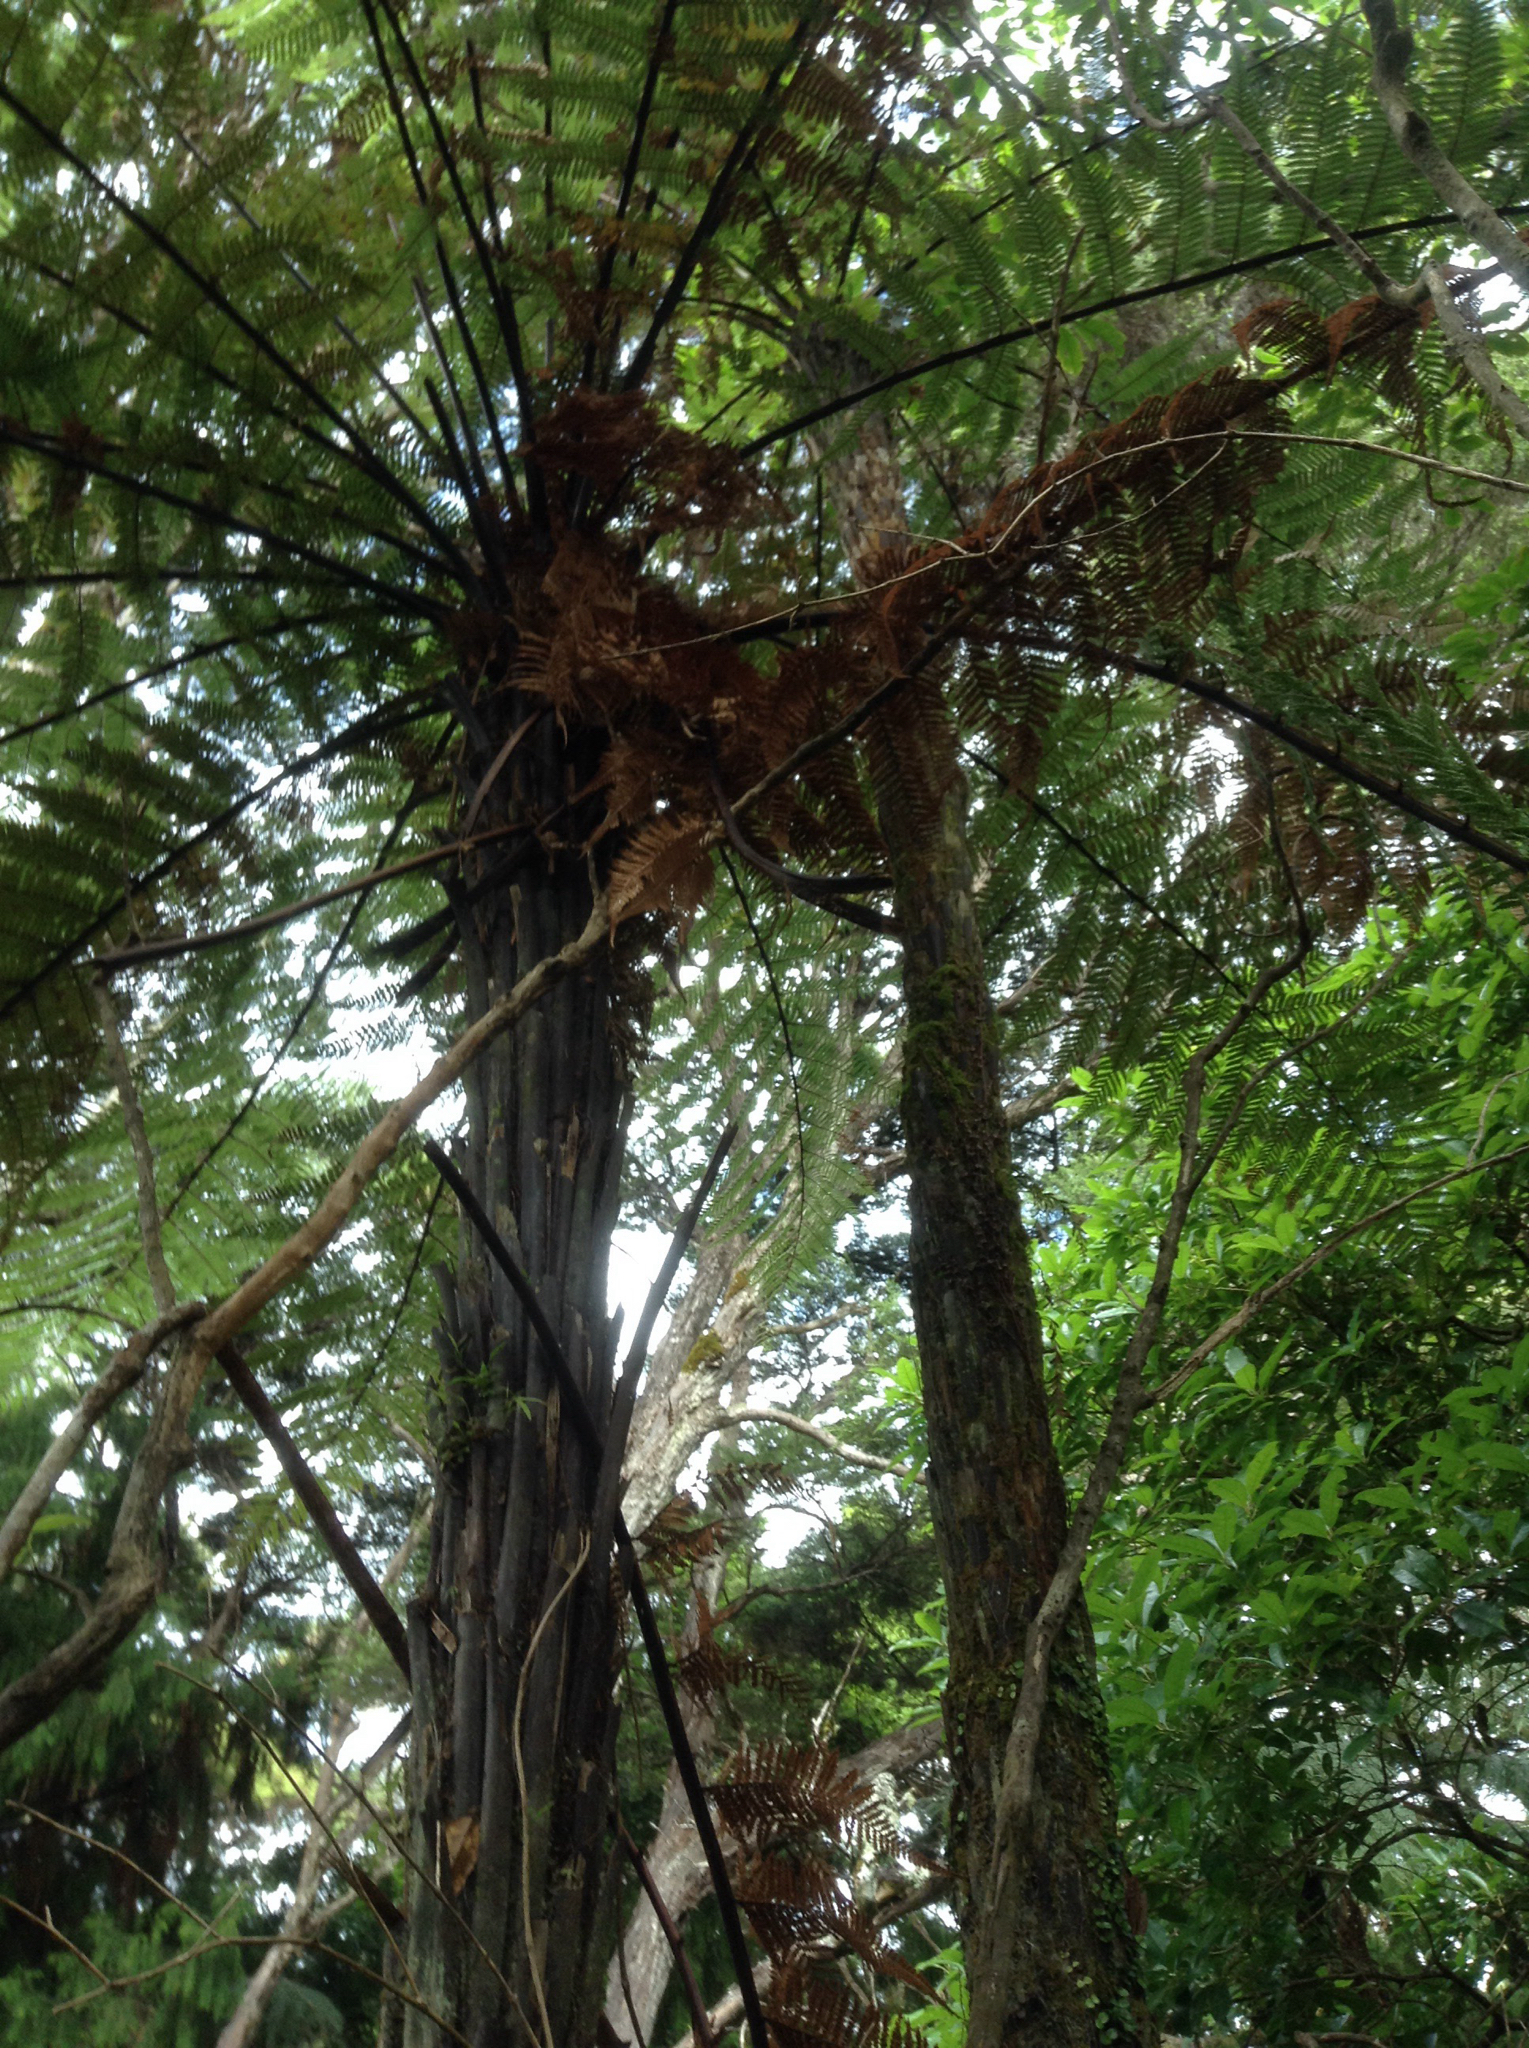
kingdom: Plantae
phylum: Tracheophyta
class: Polypodiopsida
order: Cyatheales
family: Dicksoniaceae
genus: Dicksonia
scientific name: Dicksonia squarrosa
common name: Hard treefern
